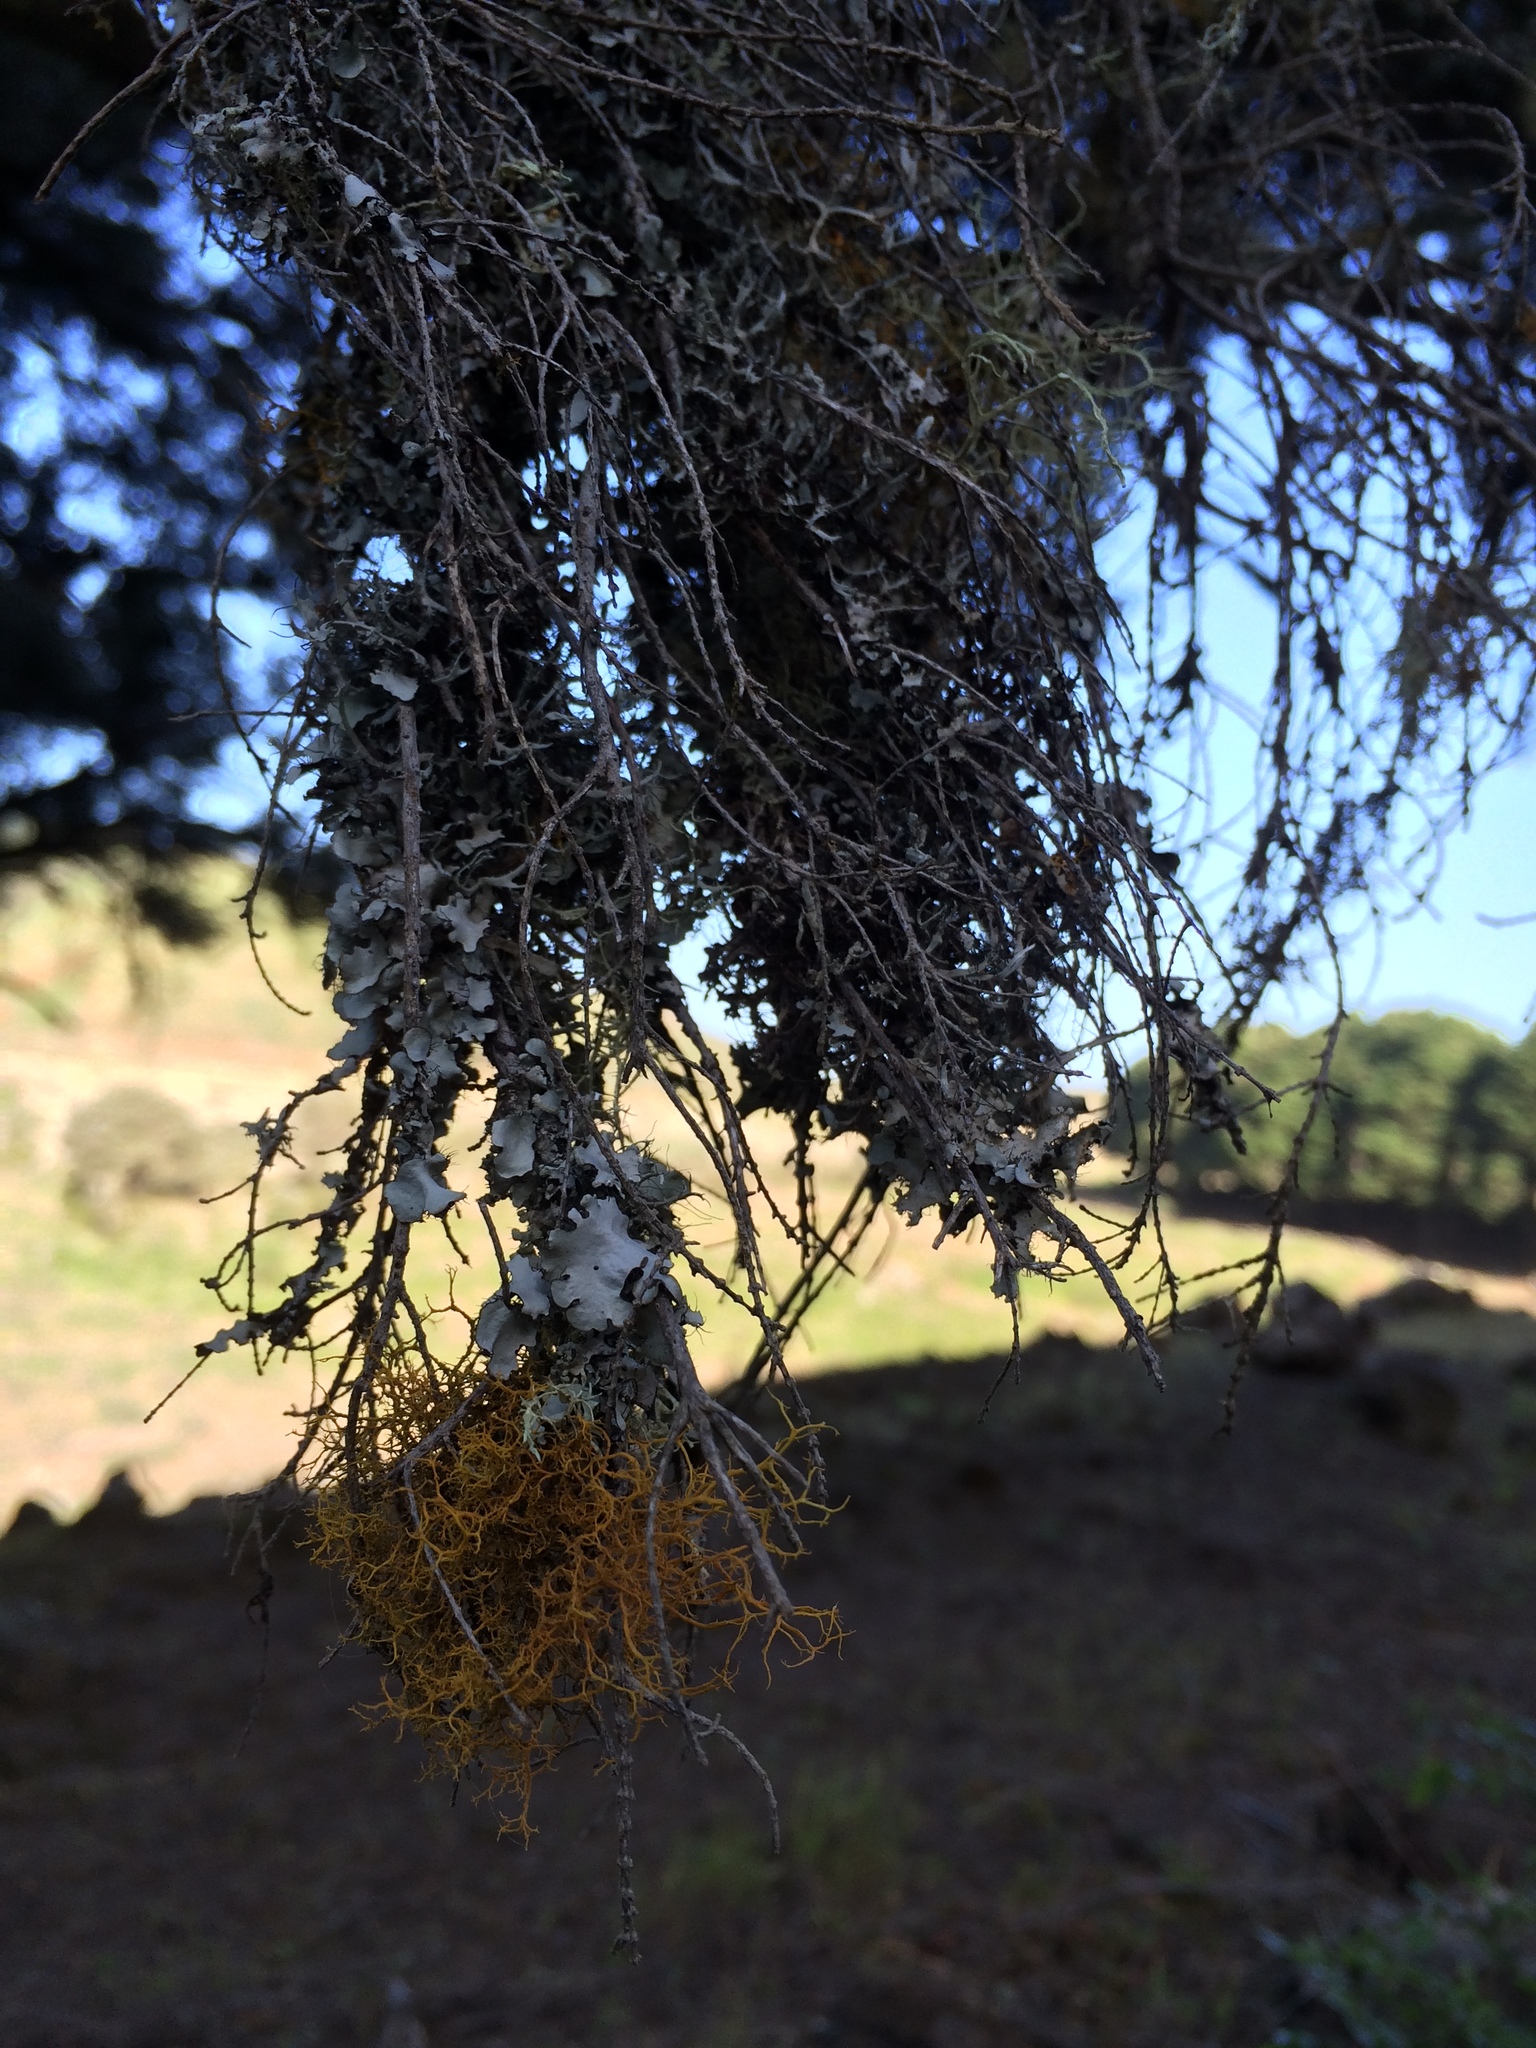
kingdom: Fungi
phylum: Ascomycota
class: Lecanoromycetes
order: Teloschistales
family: Teloschistaceae
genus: Teloschistes
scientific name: Teloschistes flavicans
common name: Golden hair-lichen
